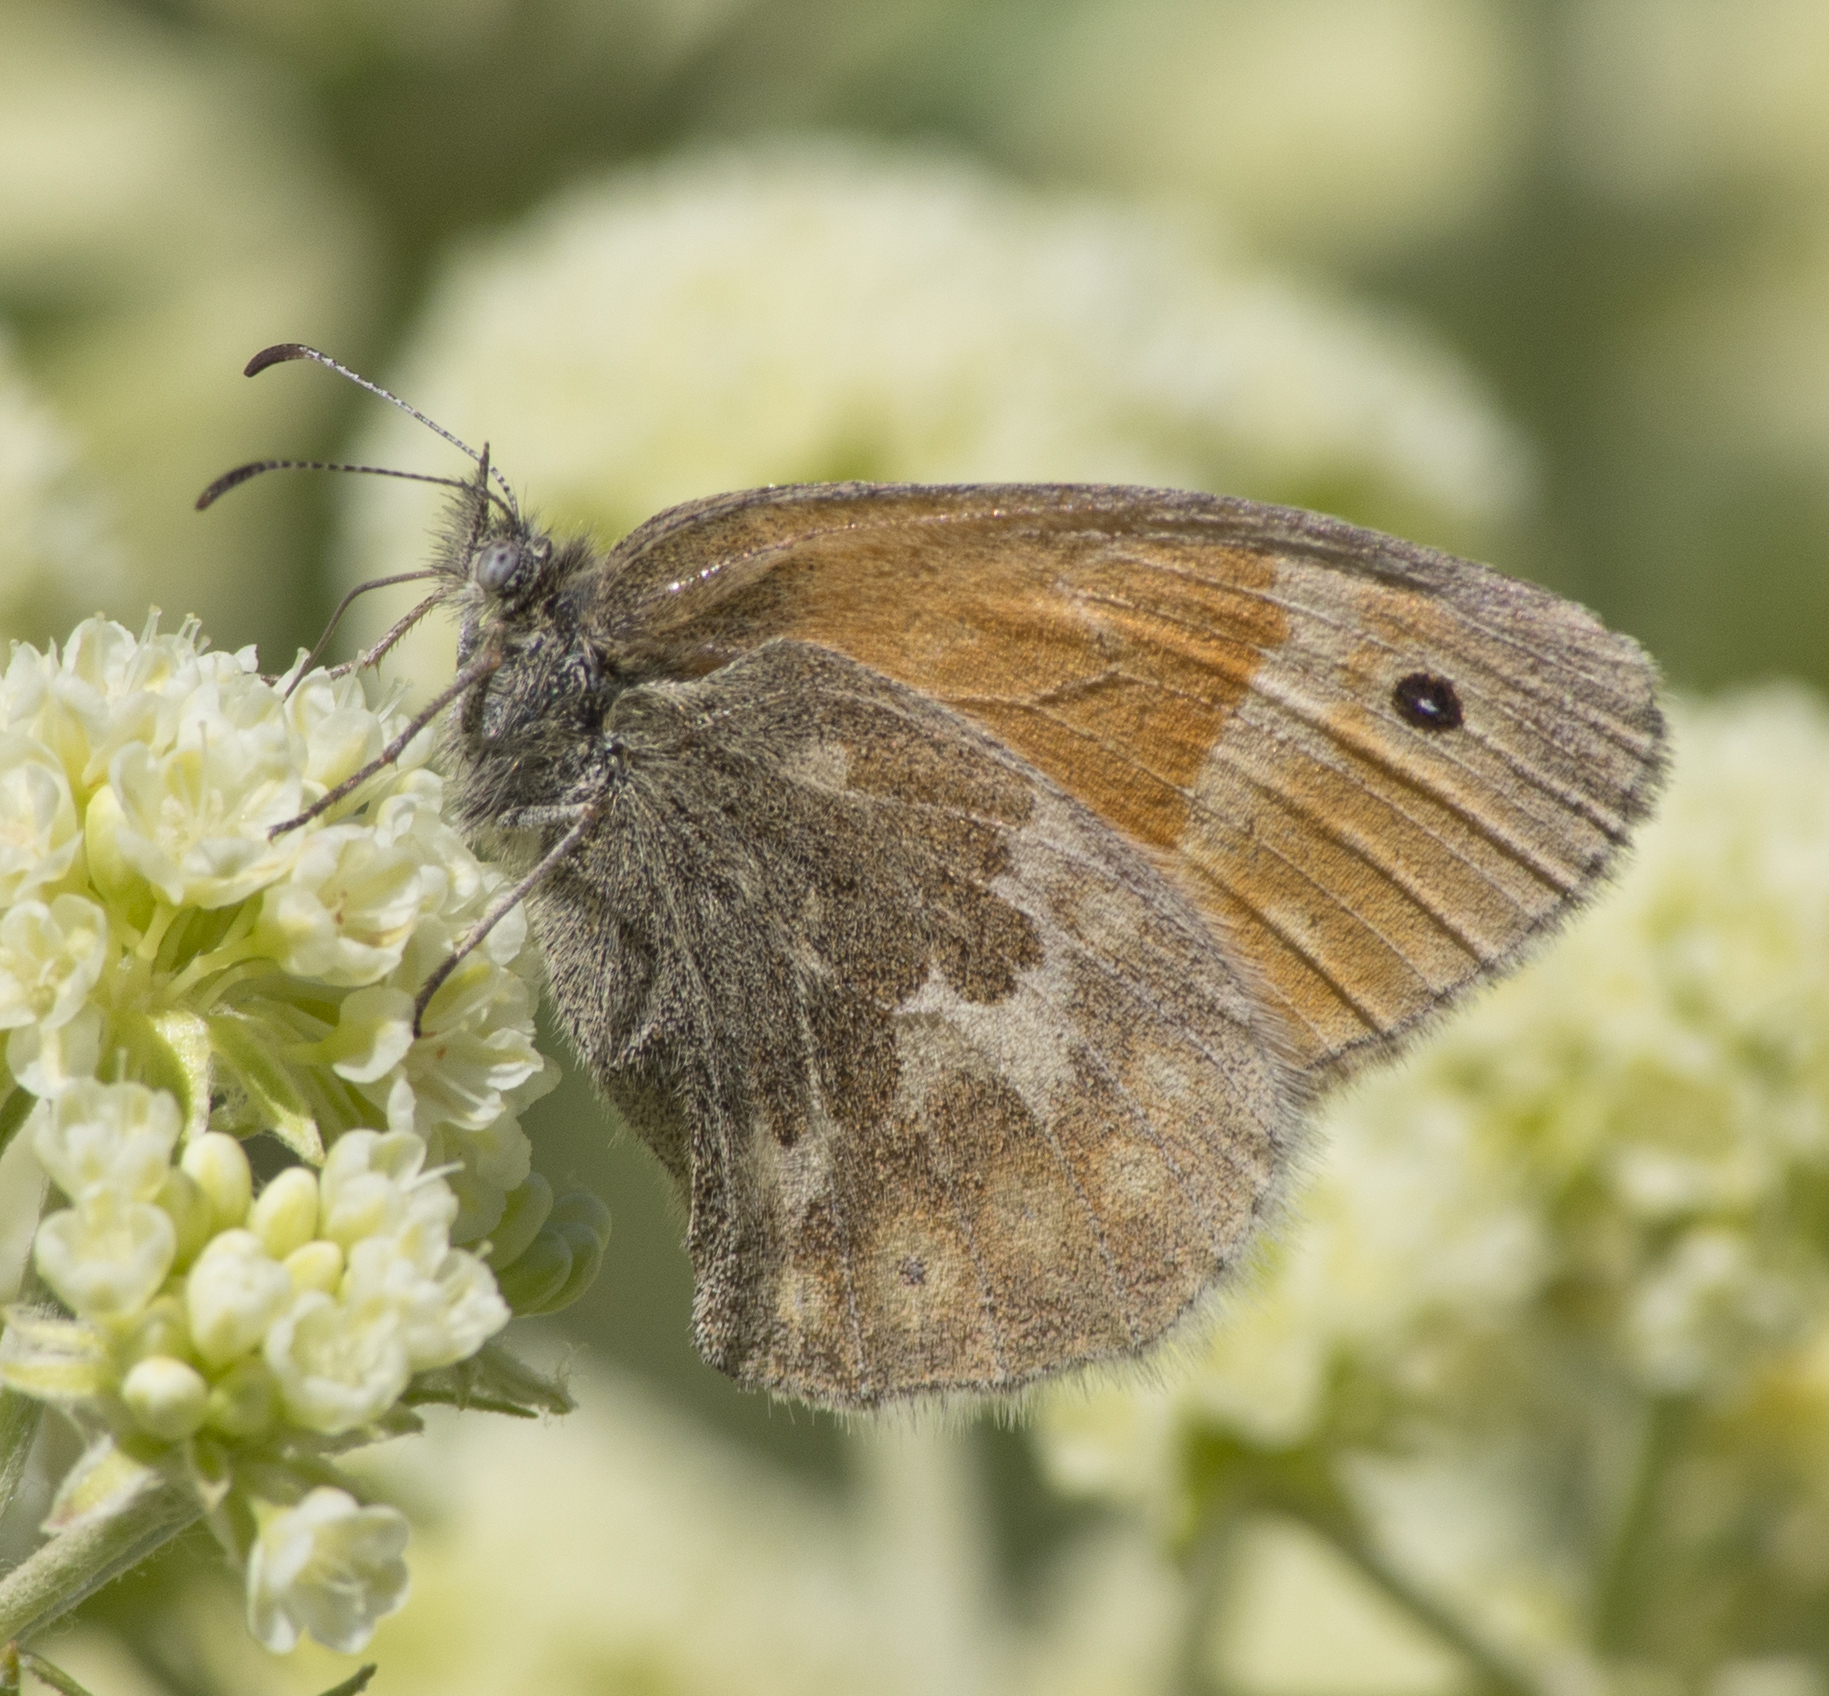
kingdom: Animalia
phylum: Arthropoda
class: Insecta
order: Lepidoptera
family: Nymphalidae
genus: Coenonympha
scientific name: Coenonympha california
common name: Common ringlet
